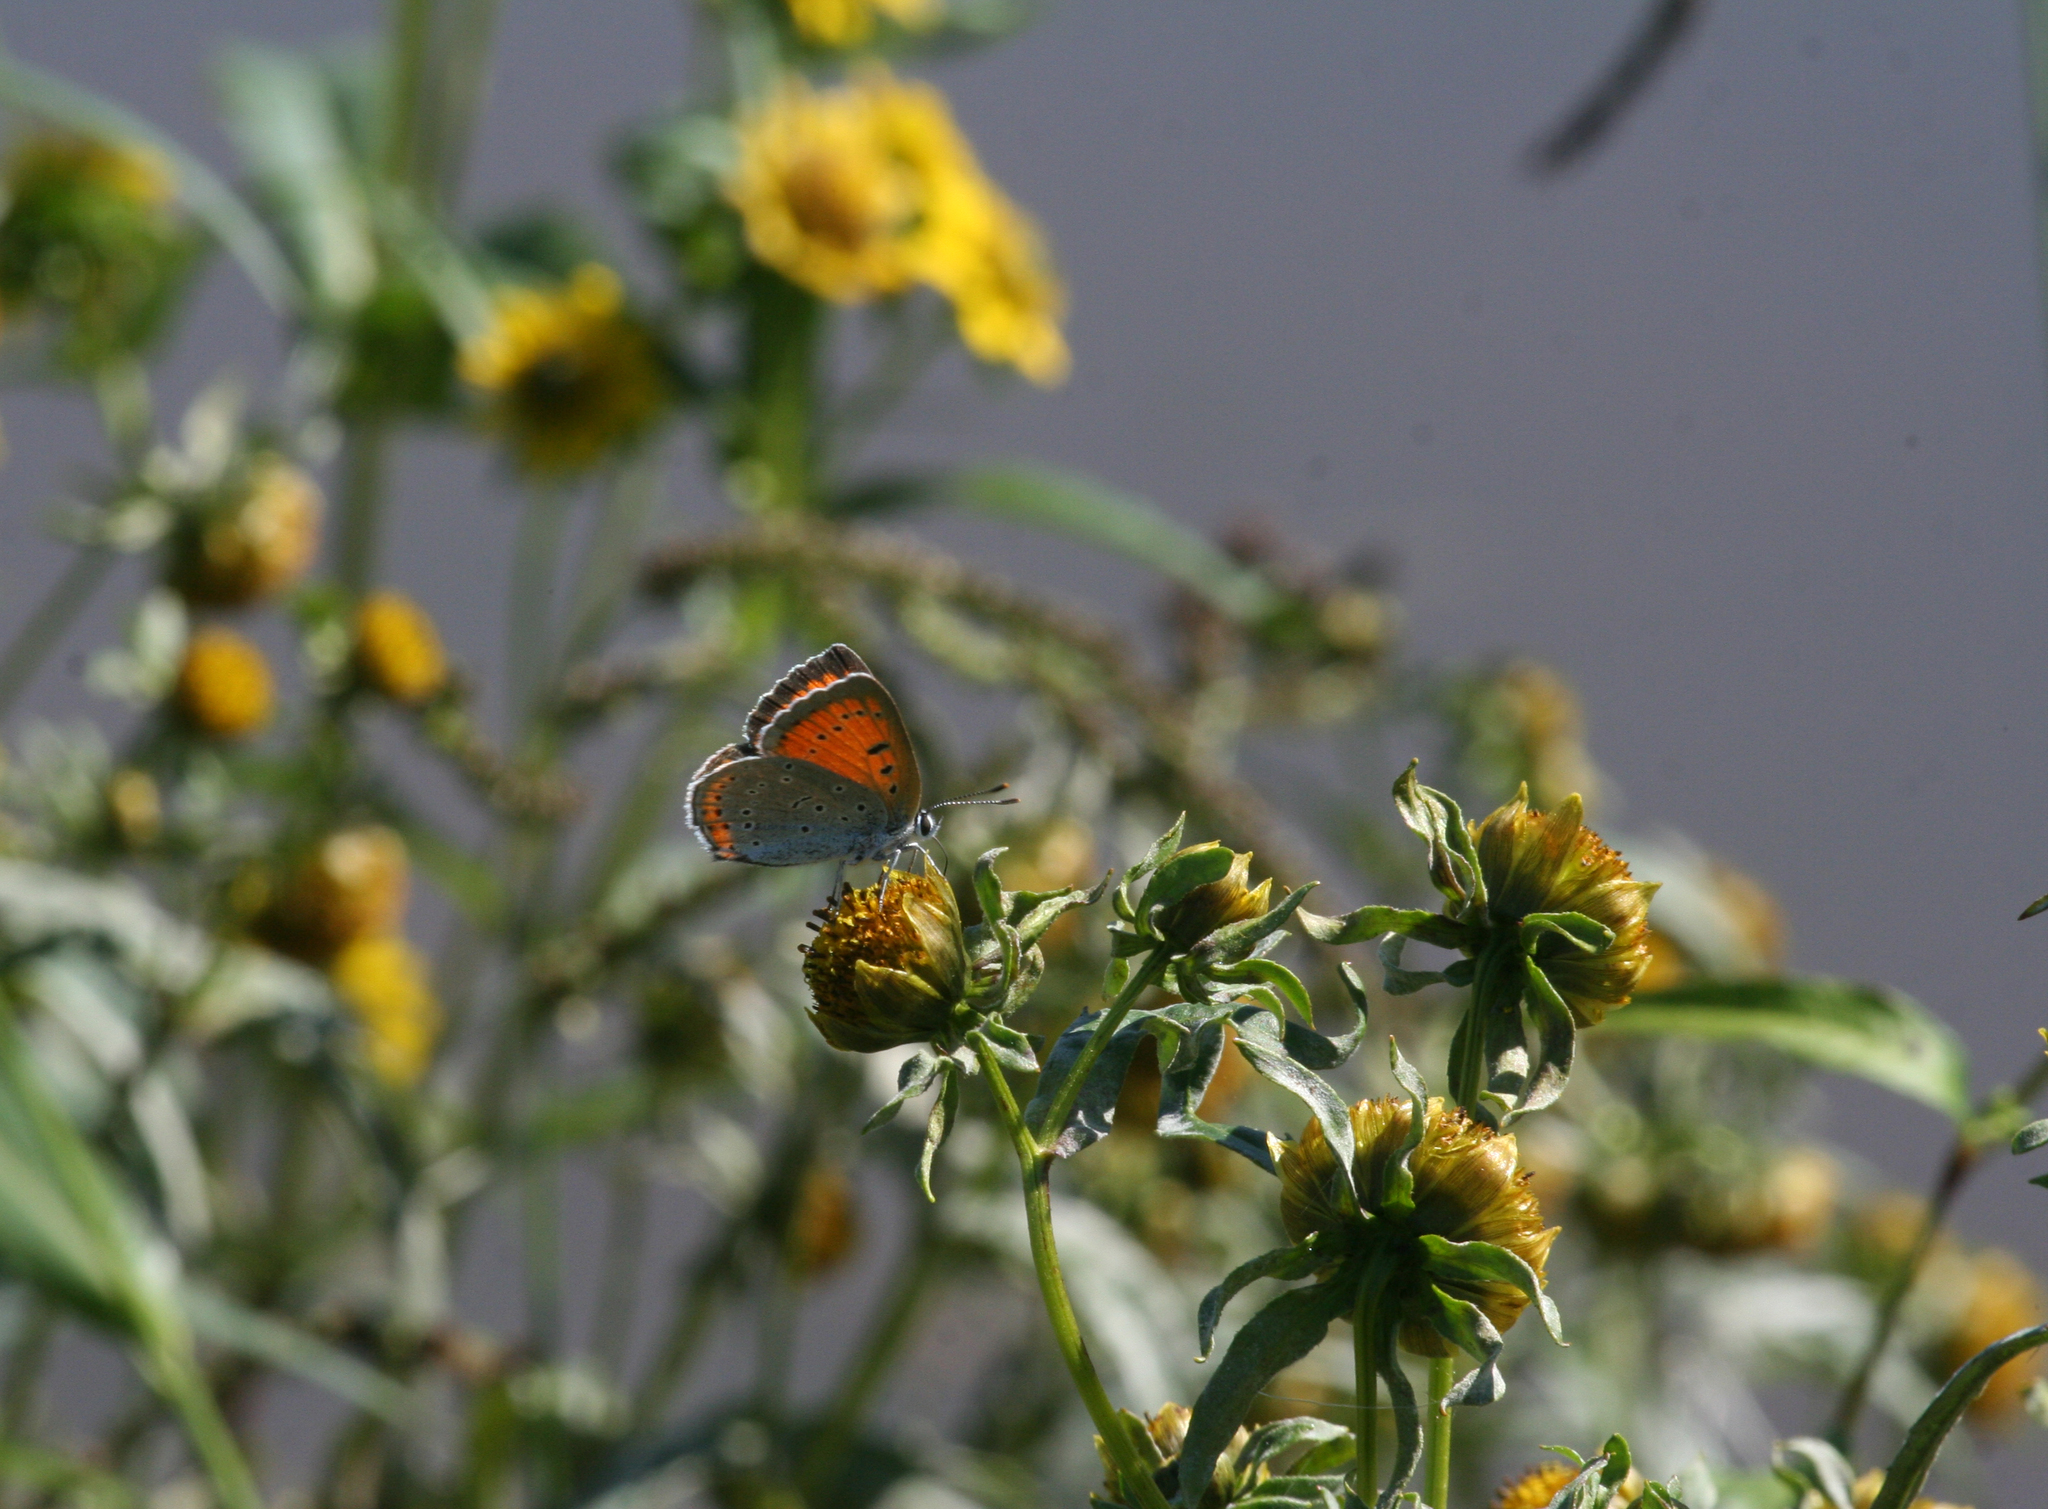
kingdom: Plantae
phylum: Tracheophyta
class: Magnoliopsida
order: Asterales
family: Asteraceae
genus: Bidens
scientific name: Bidens cernua
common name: Nodding bur-marigold
